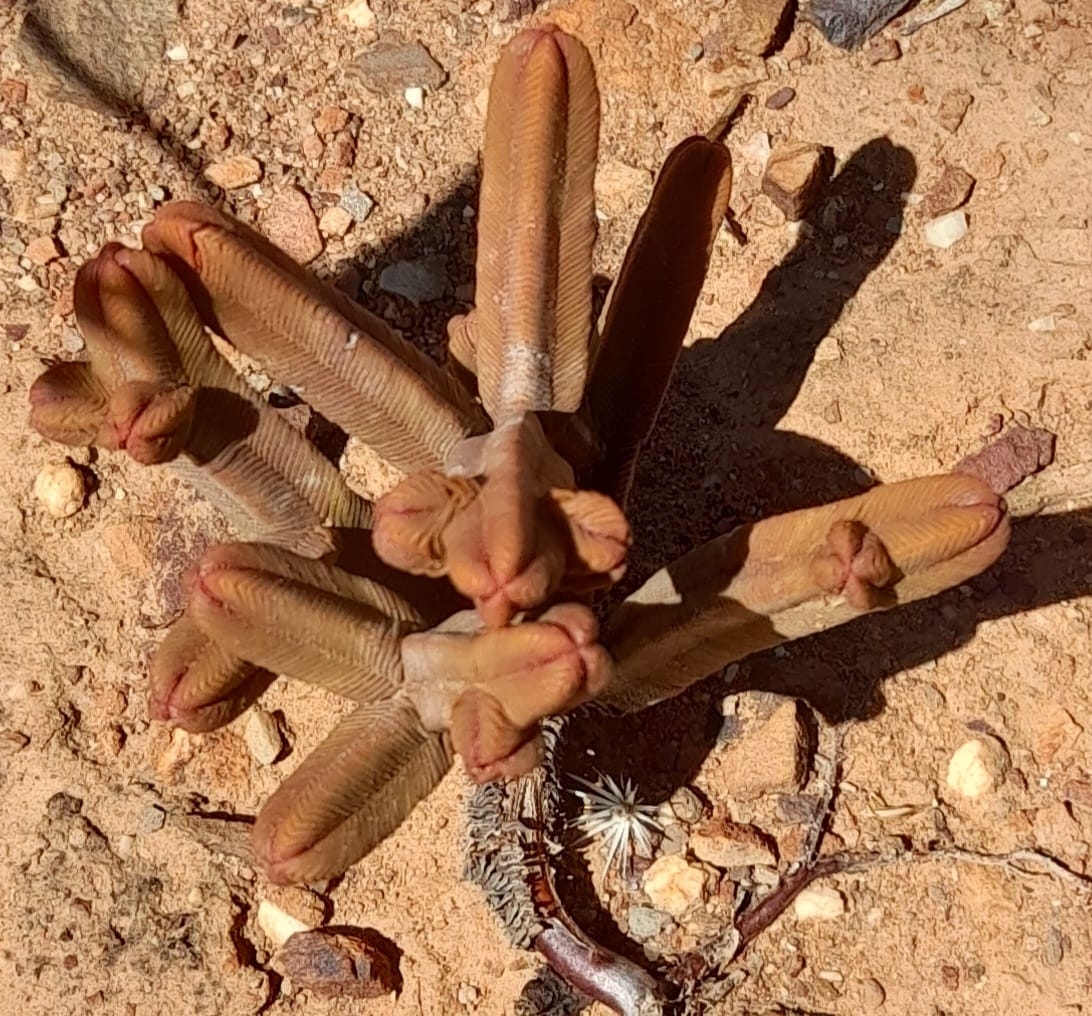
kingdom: Plantae
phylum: Tracheophyta
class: Magnoliopsida
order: Saxifragales
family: Crassulaceae
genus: Crassula
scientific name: Crassula pyramidalis
